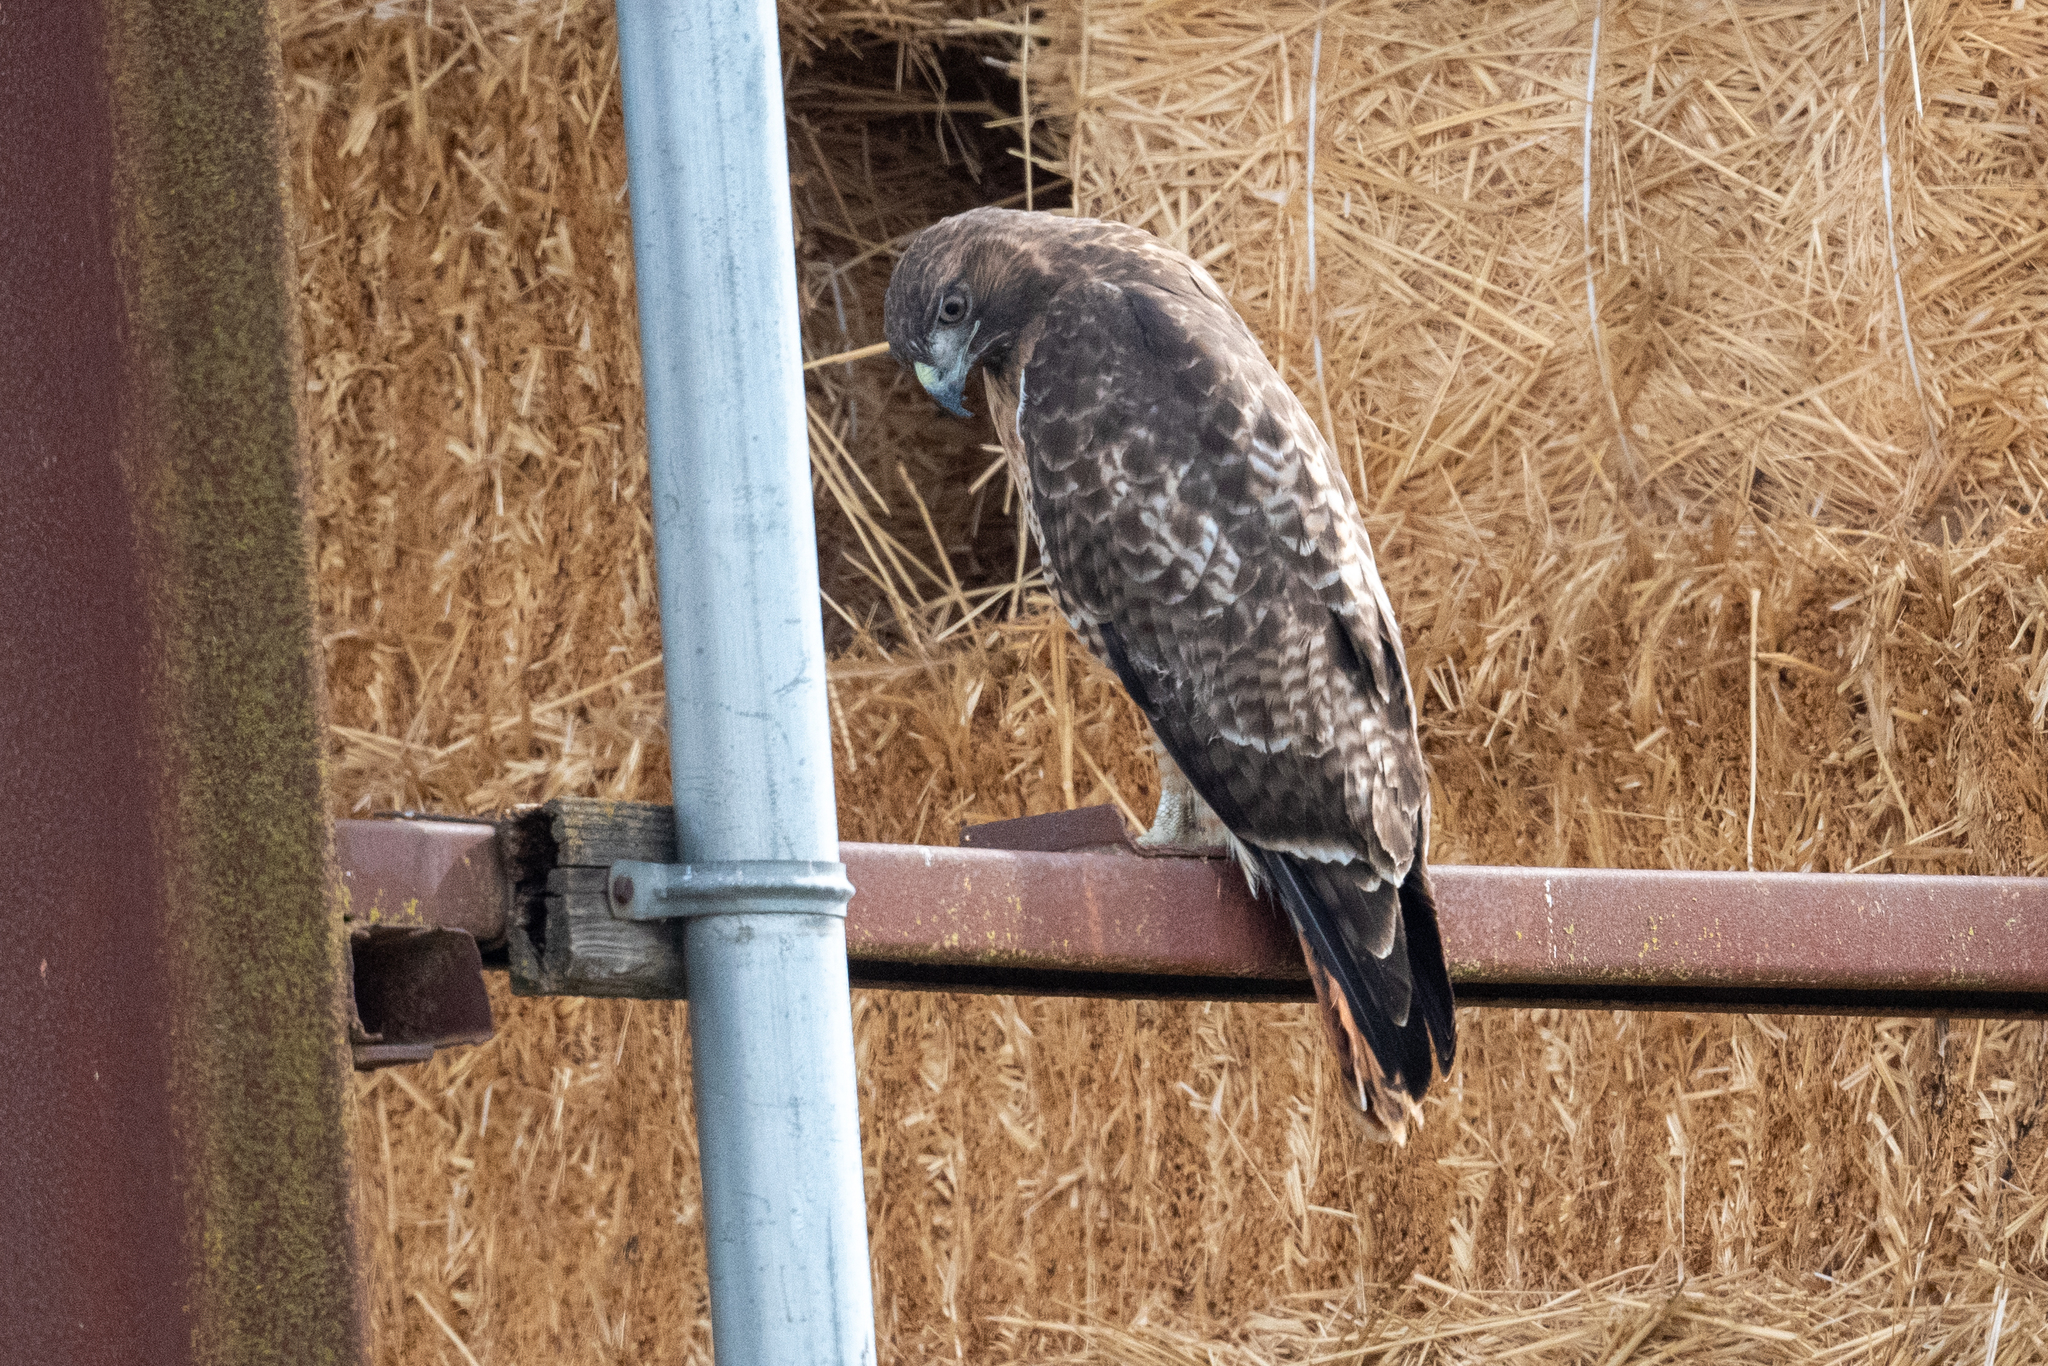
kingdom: Animalia
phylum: Chordata
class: Aves
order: Accipitriformes
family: Accipitridae
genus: Buteo
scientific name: Buteo jamaicensis
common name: Red-tailed hawk
